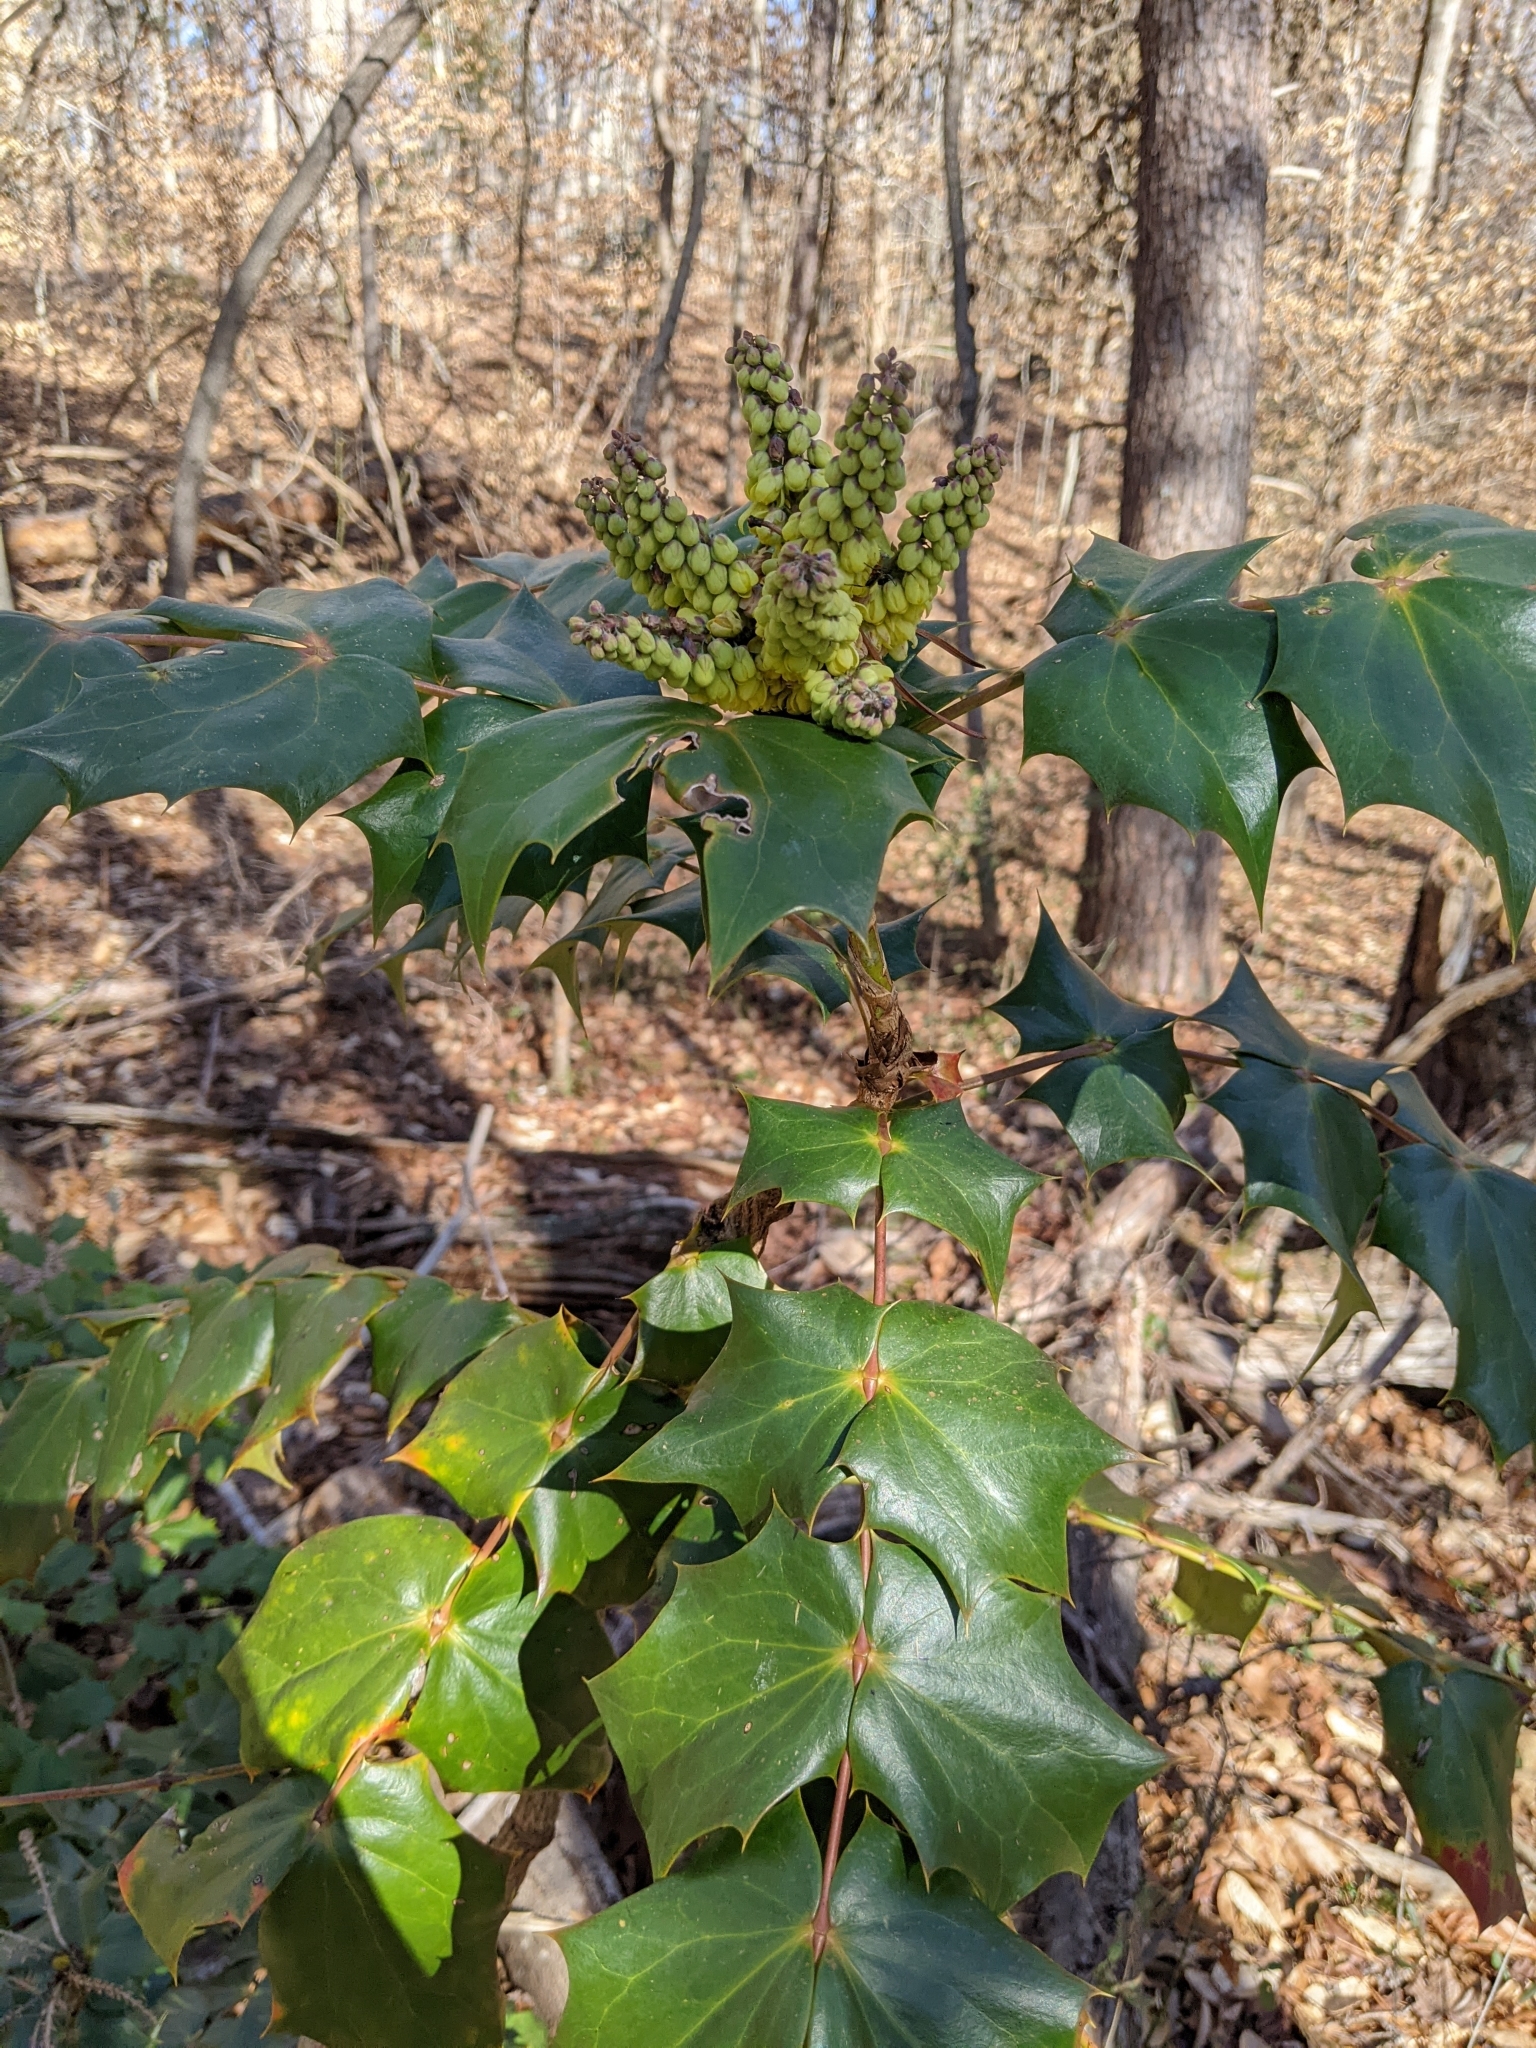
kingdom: Plantae
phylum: Tracheophyta
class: Magnoliopsida
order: Ranunculales
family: Berberidaceae
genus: Mahonia
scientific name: Mahonia bealei
